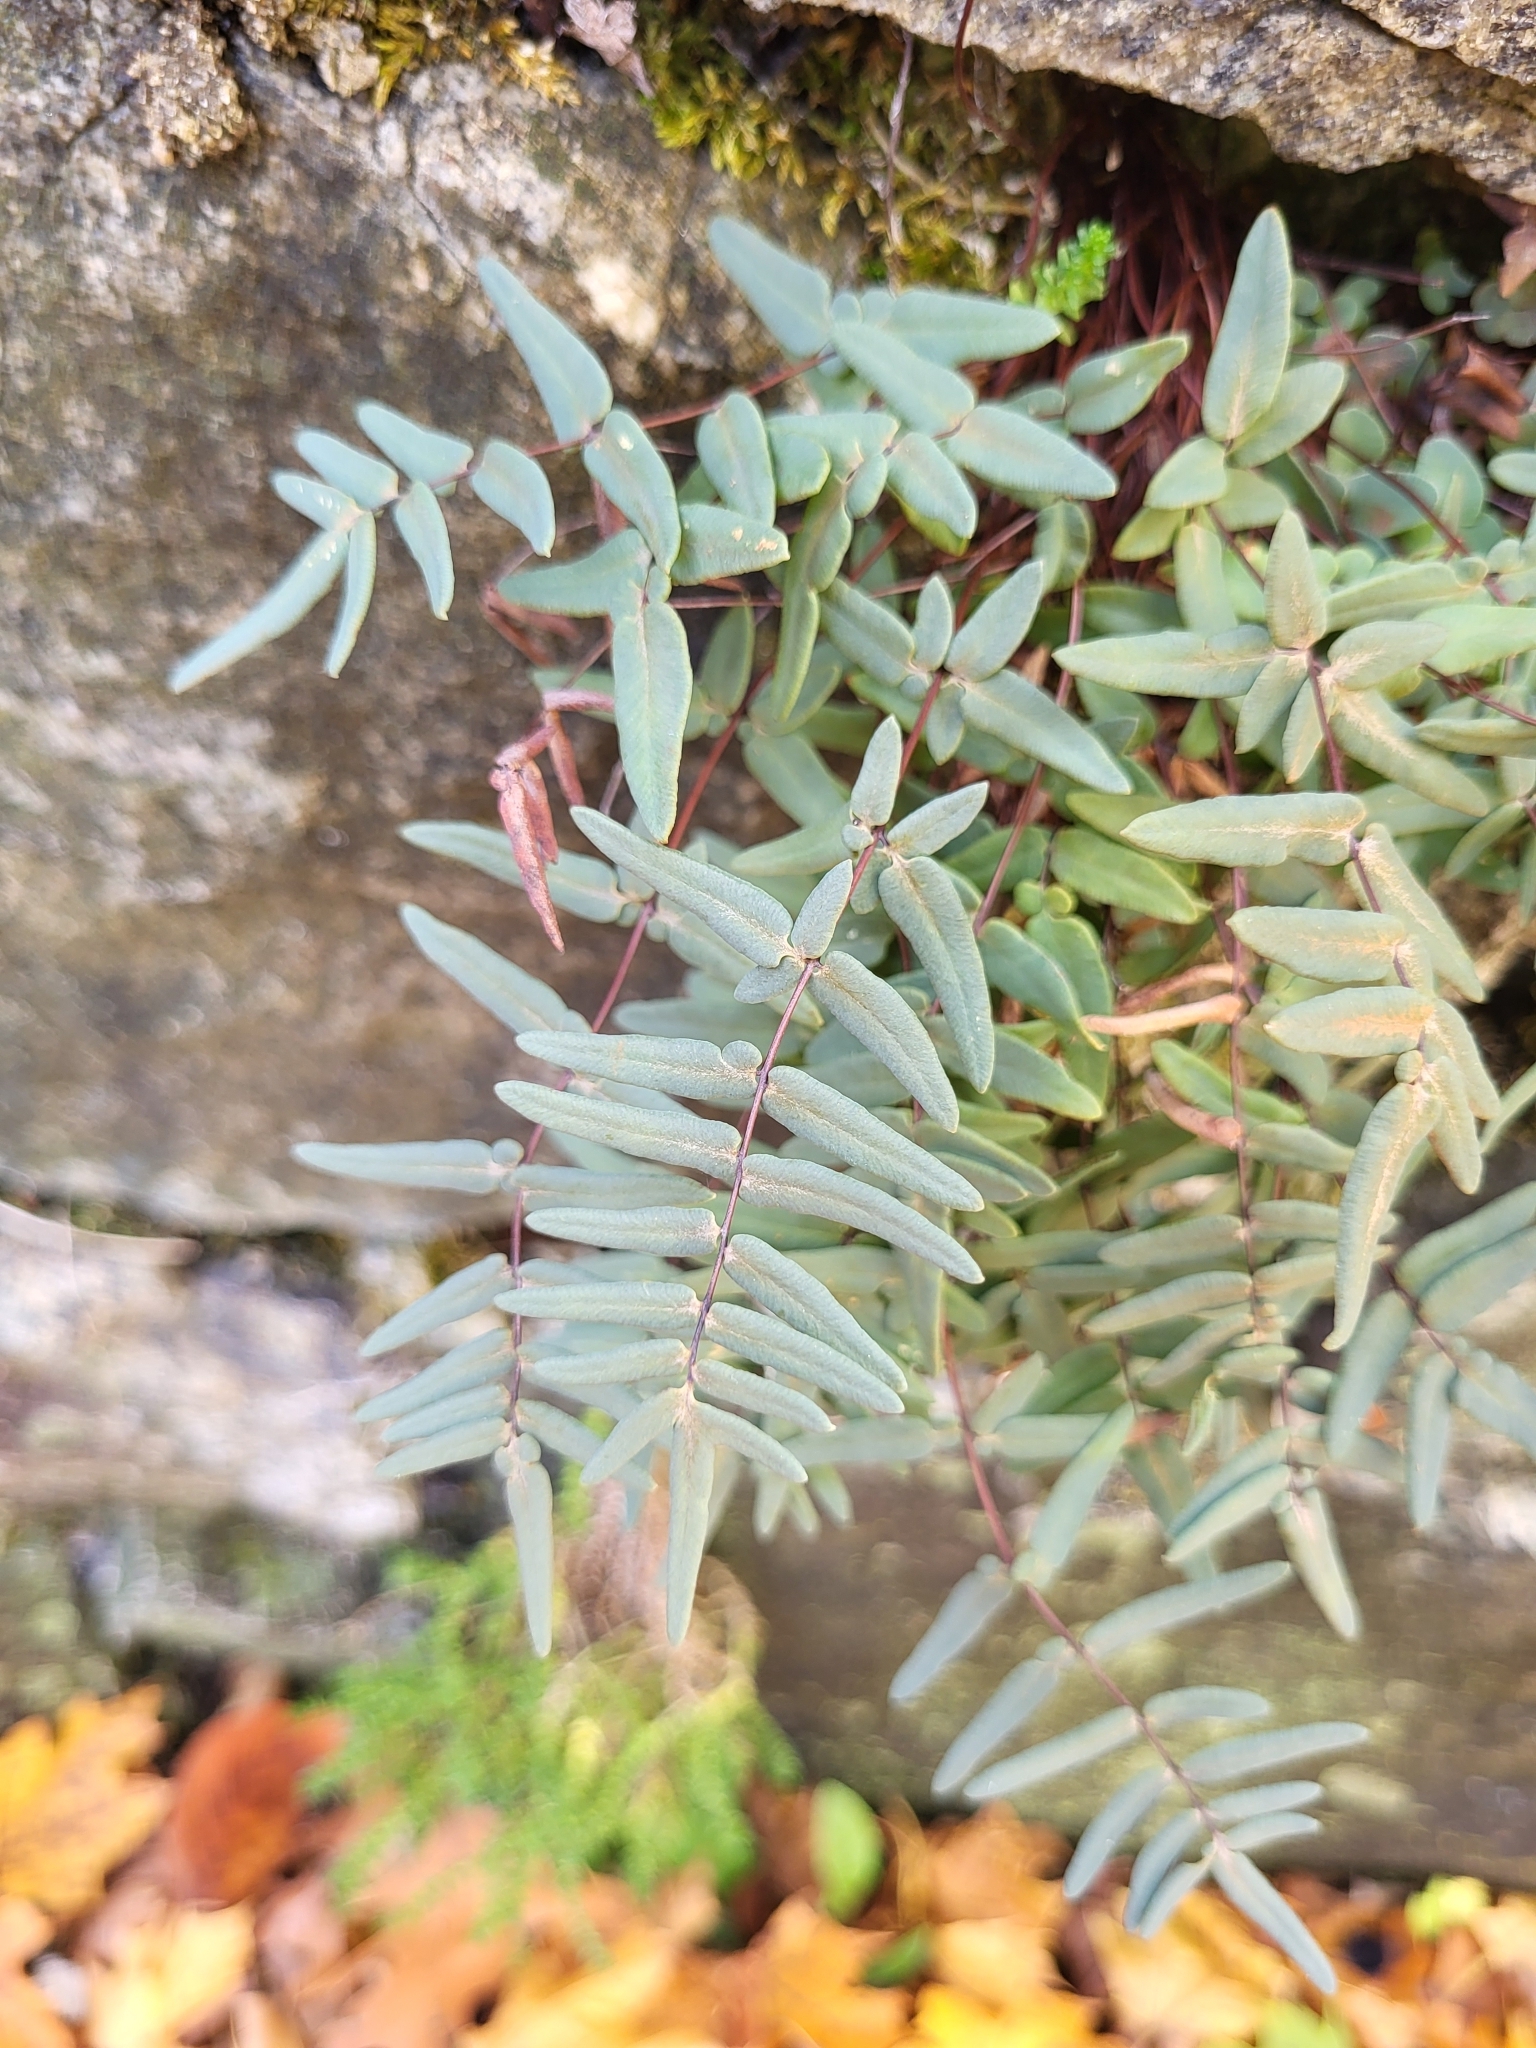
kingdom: Plantae
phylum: Tracheophyta
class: Polypodiopsida
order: Polypodiales
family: Pteridaceae
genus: Pellaea
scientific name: Pellaea glabella
